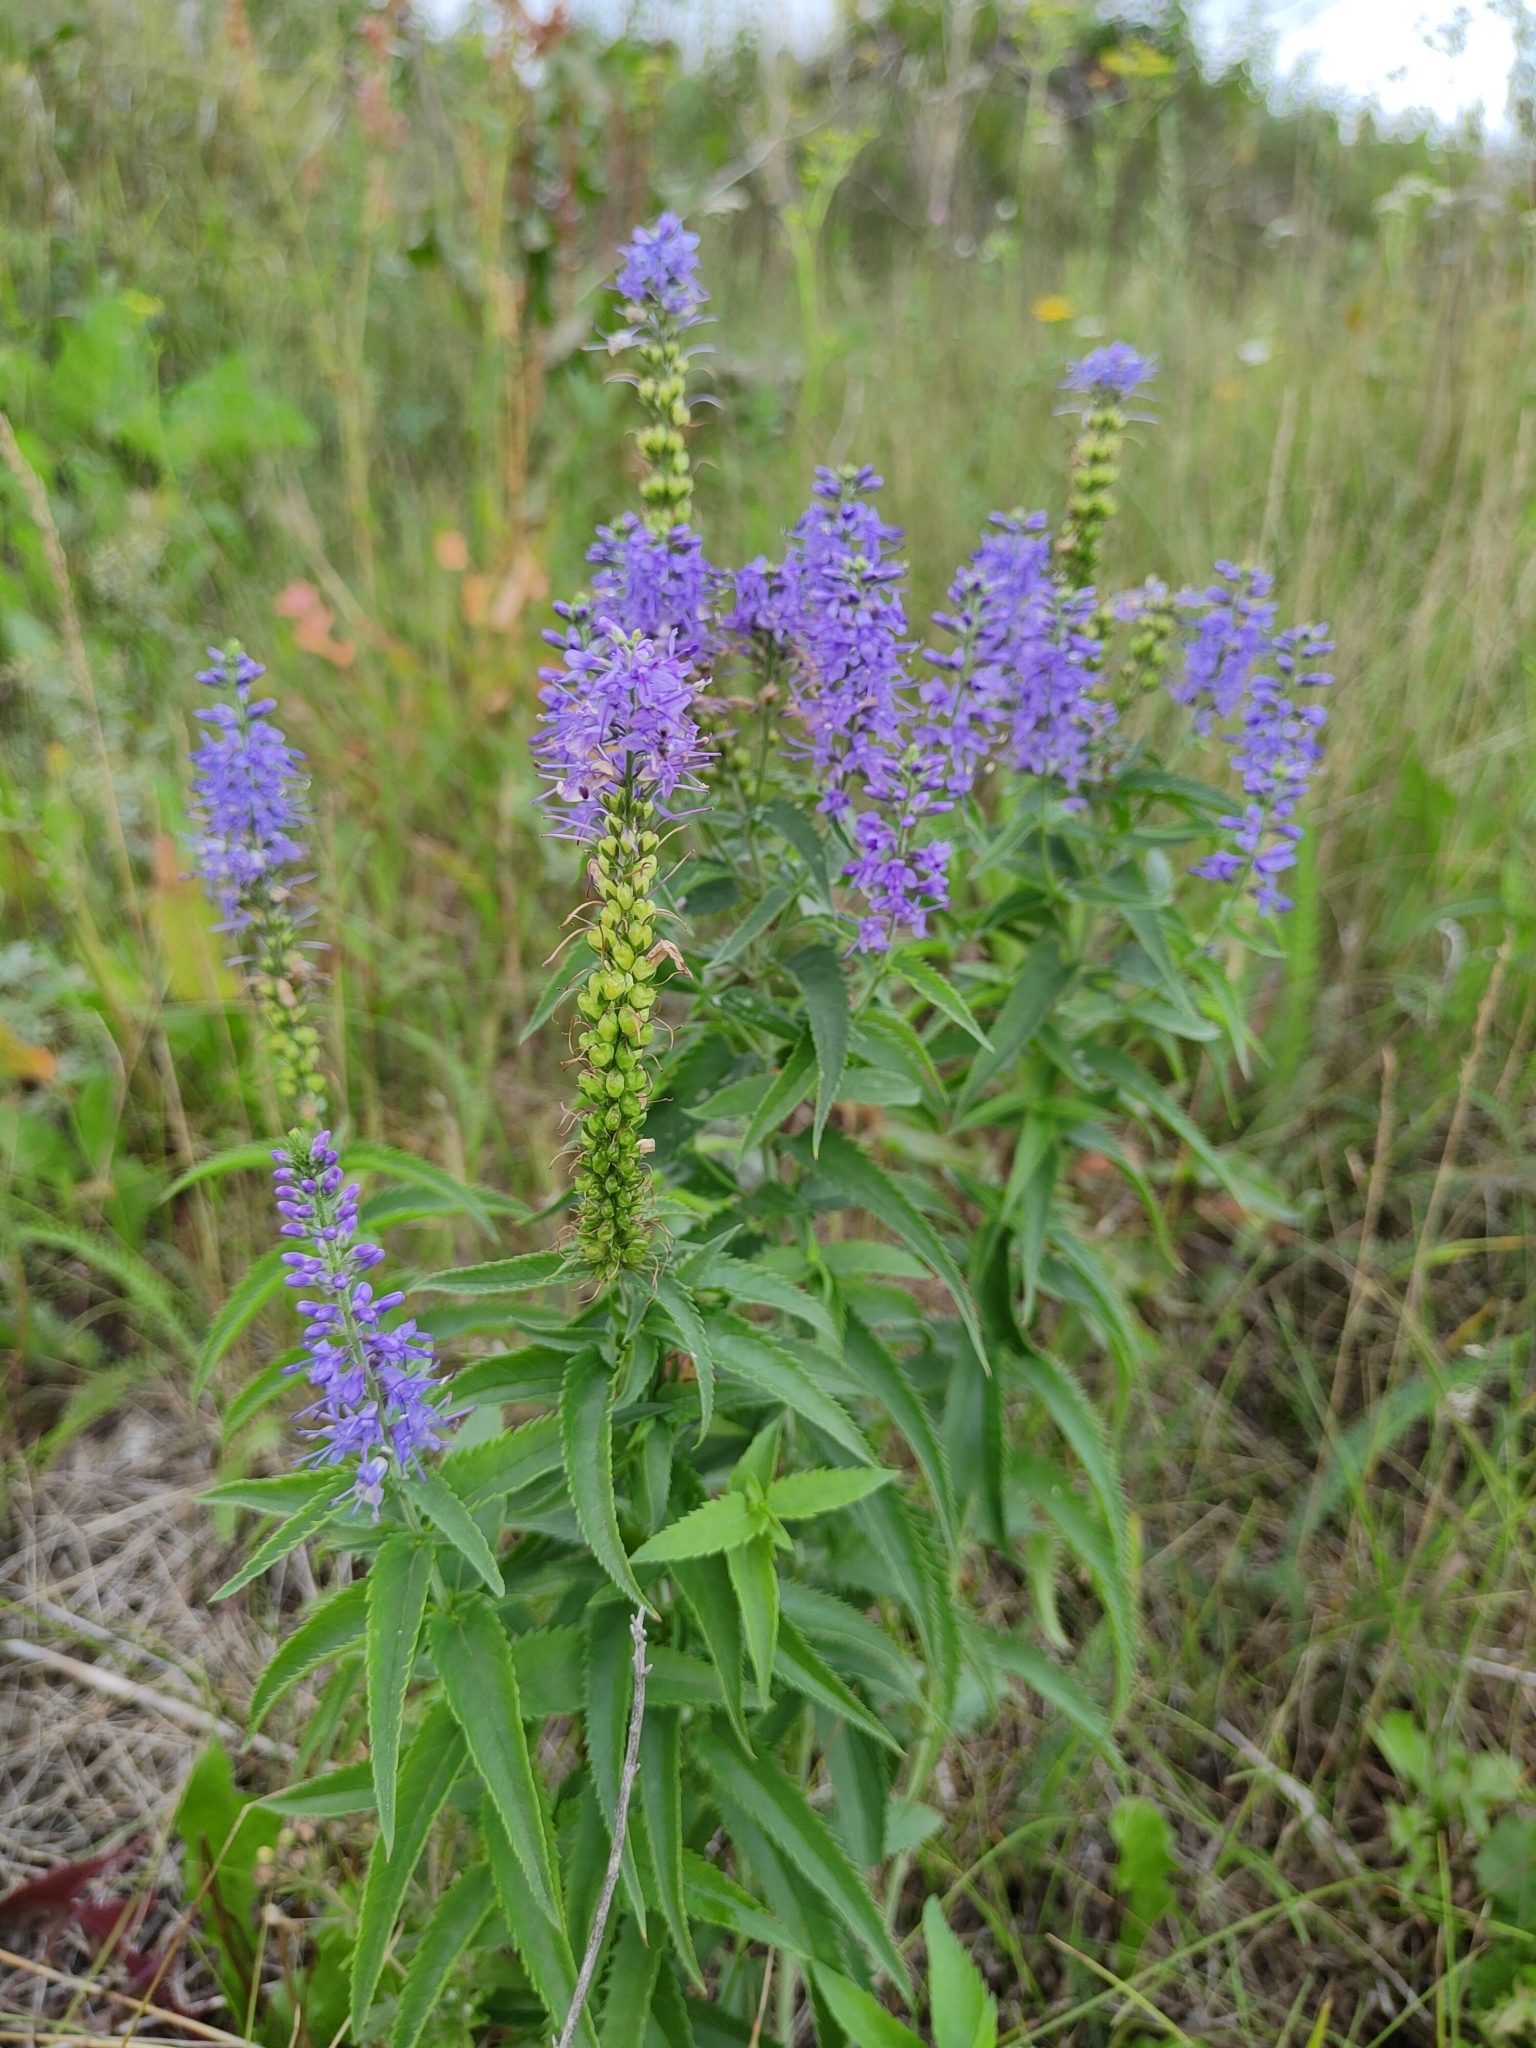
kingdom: Plantae
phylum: Tracheophyta
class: Magnoliopsida
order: Lamiales
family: Plantaginaceae
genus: Veronica
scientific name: Veronica longifolia
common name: Garden speedwell
